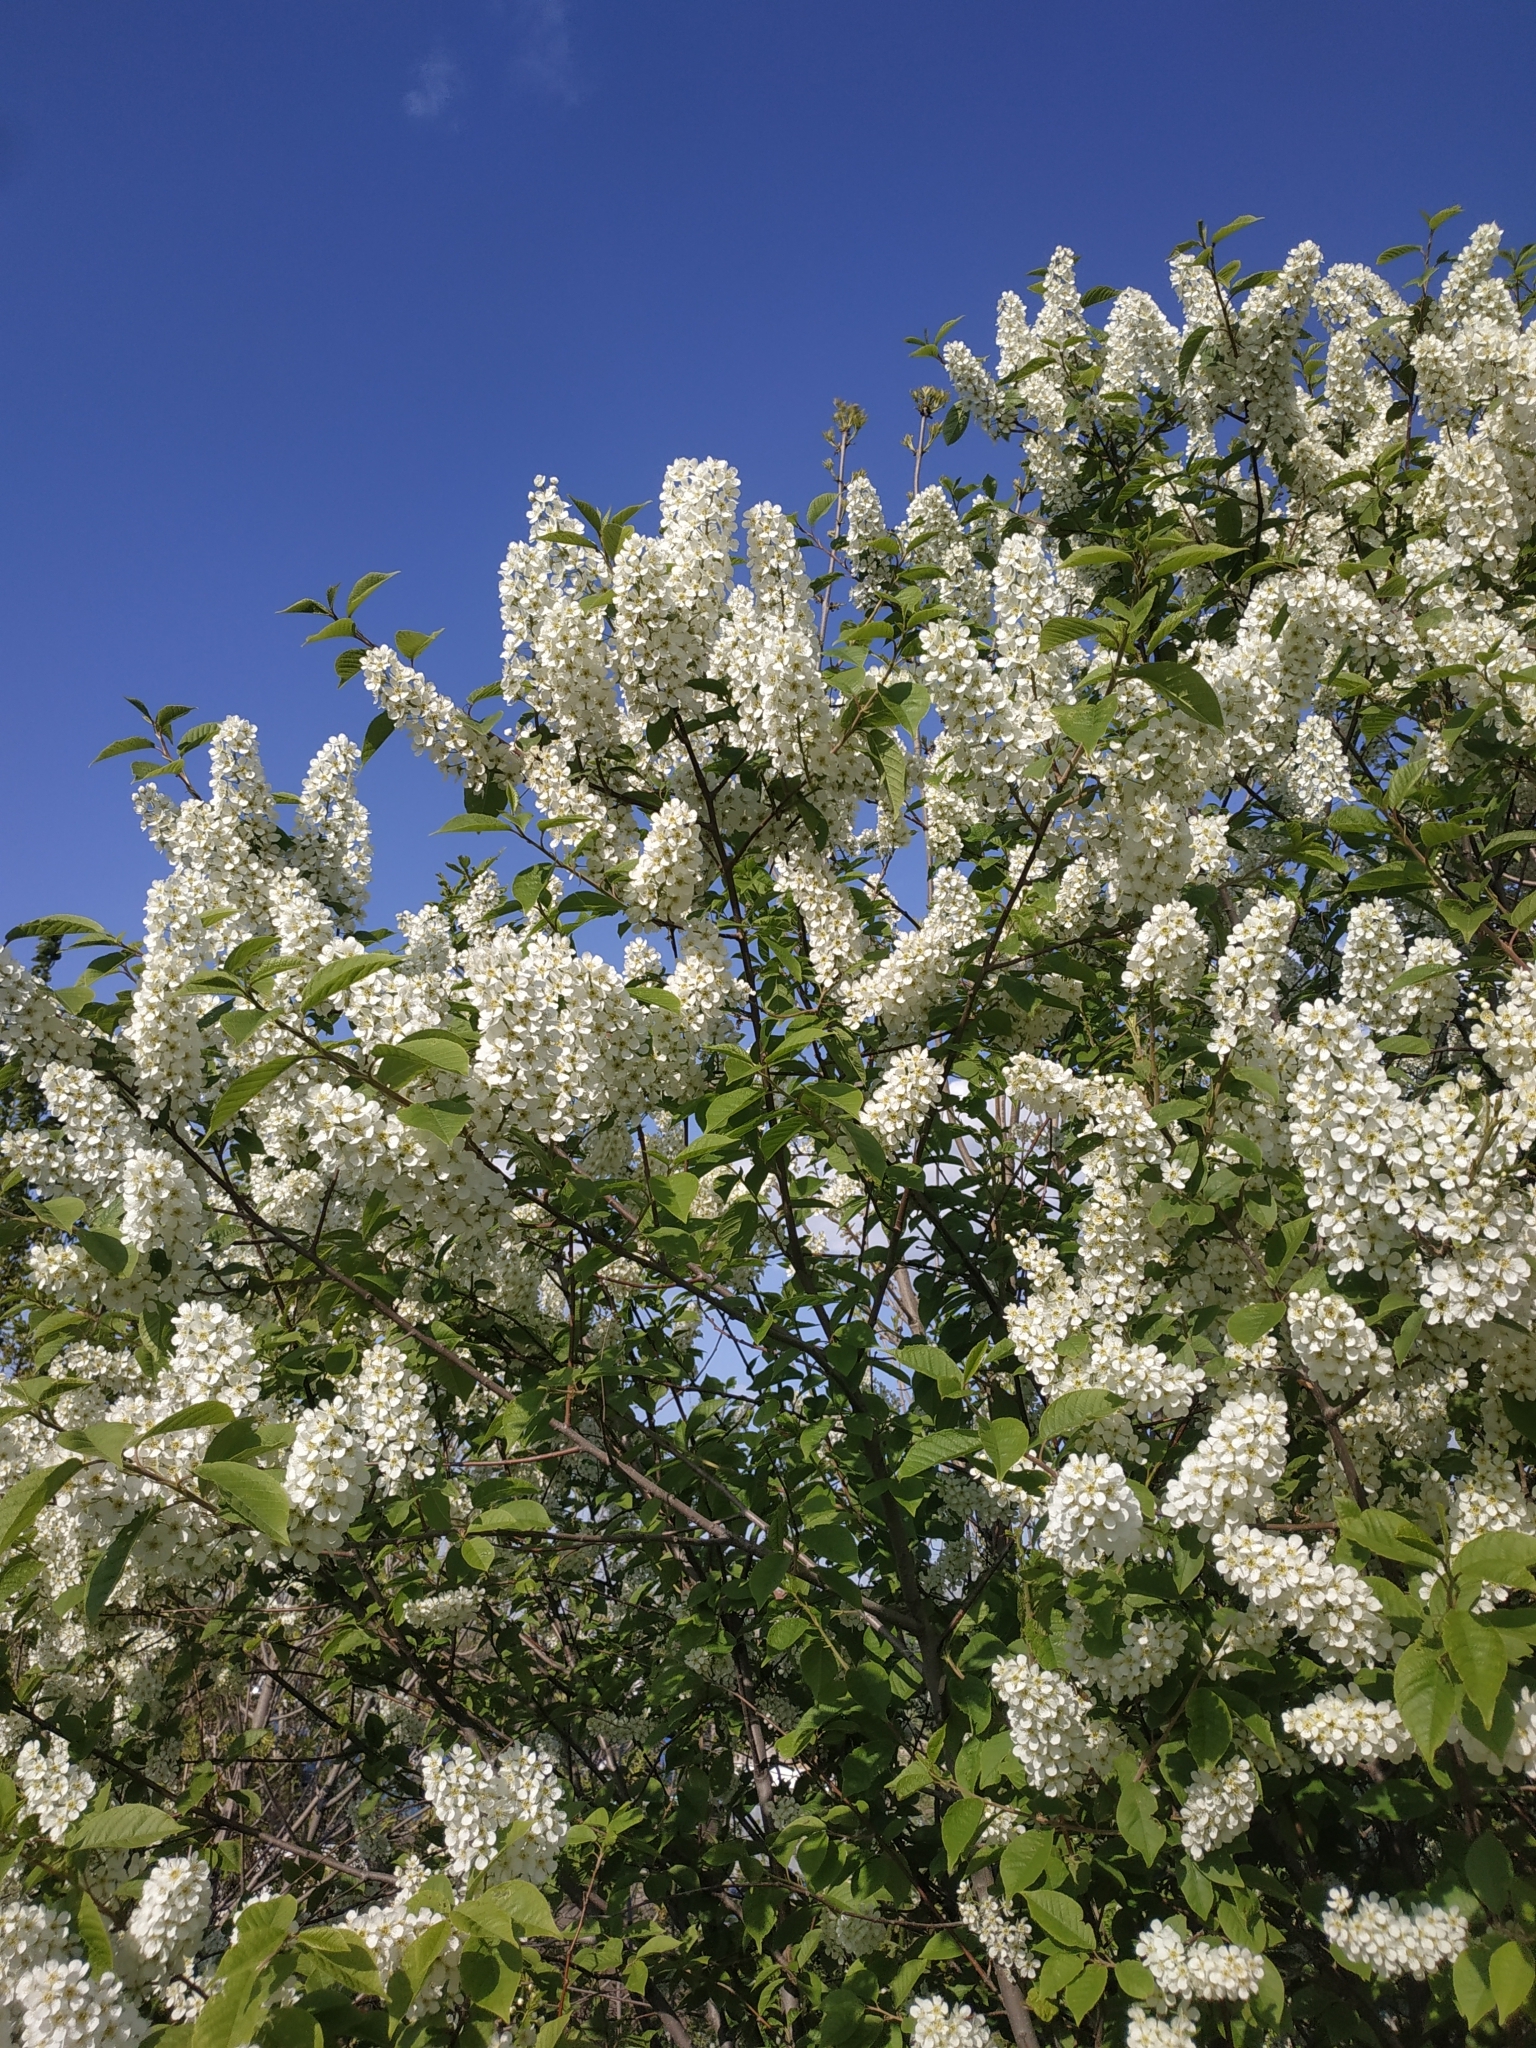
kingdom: Plantae
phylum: Tracheophyta
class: Magnoliopsida
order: Rosales
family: Rosaceae
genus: Prunus
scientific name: Prunus padus
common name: Bird cherry
